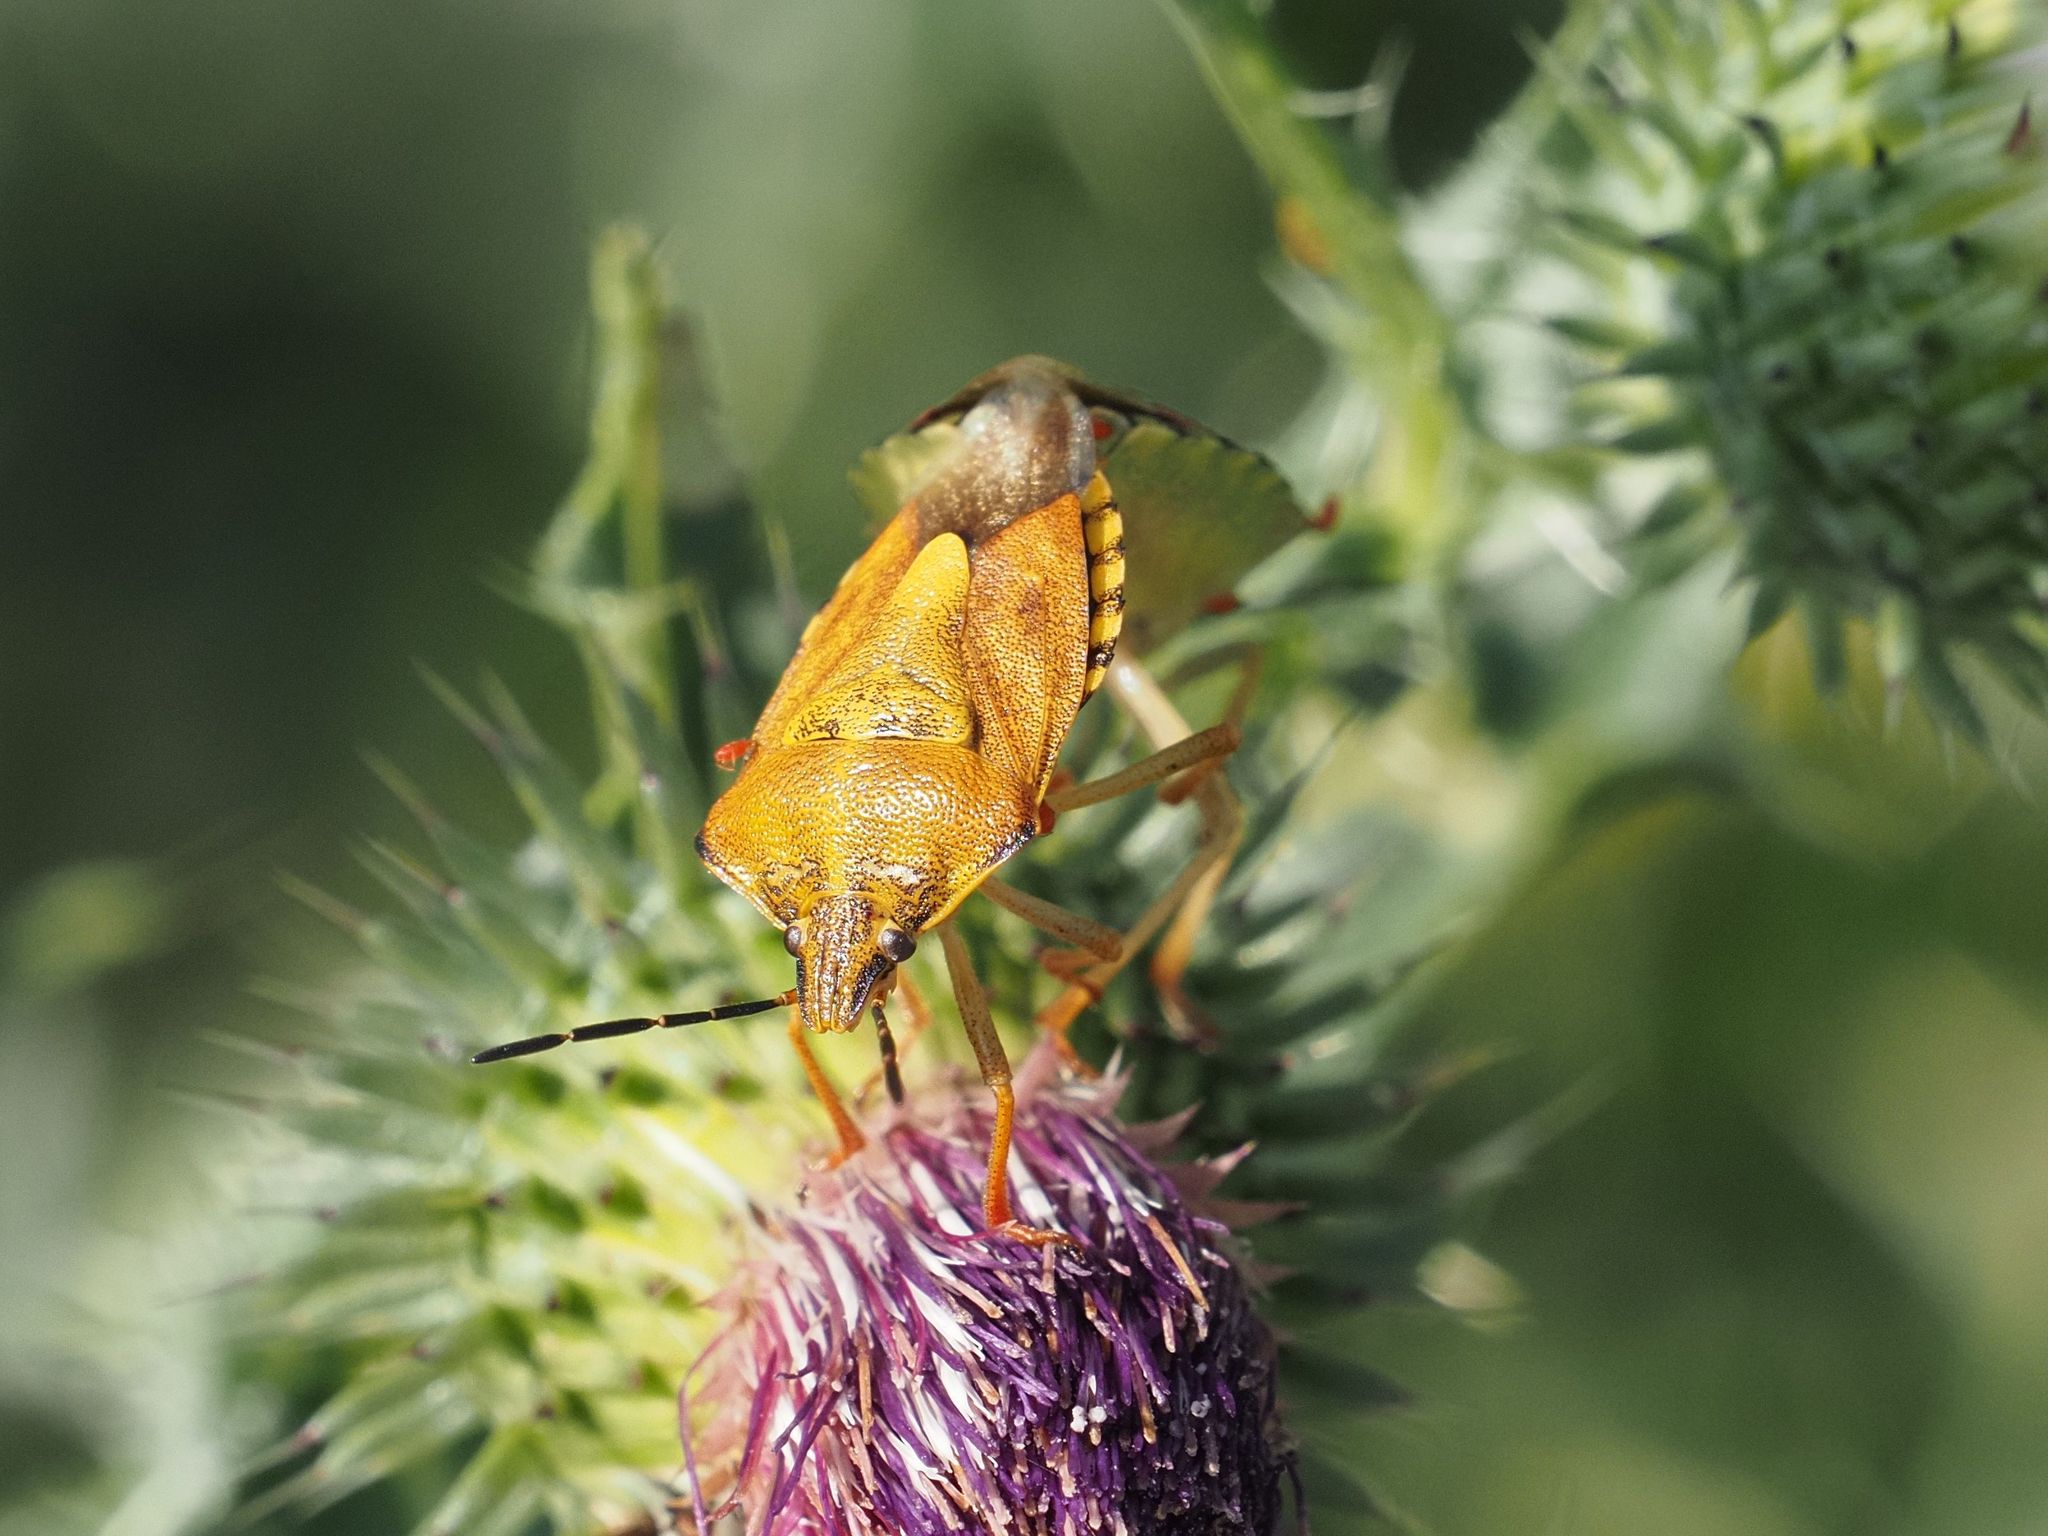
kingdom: Animalia
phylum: Arthropoda
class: Insecta
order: Hemiptera
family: Pentatomidae
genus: Carpocoris
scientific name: Carpocoris purpureipennis
